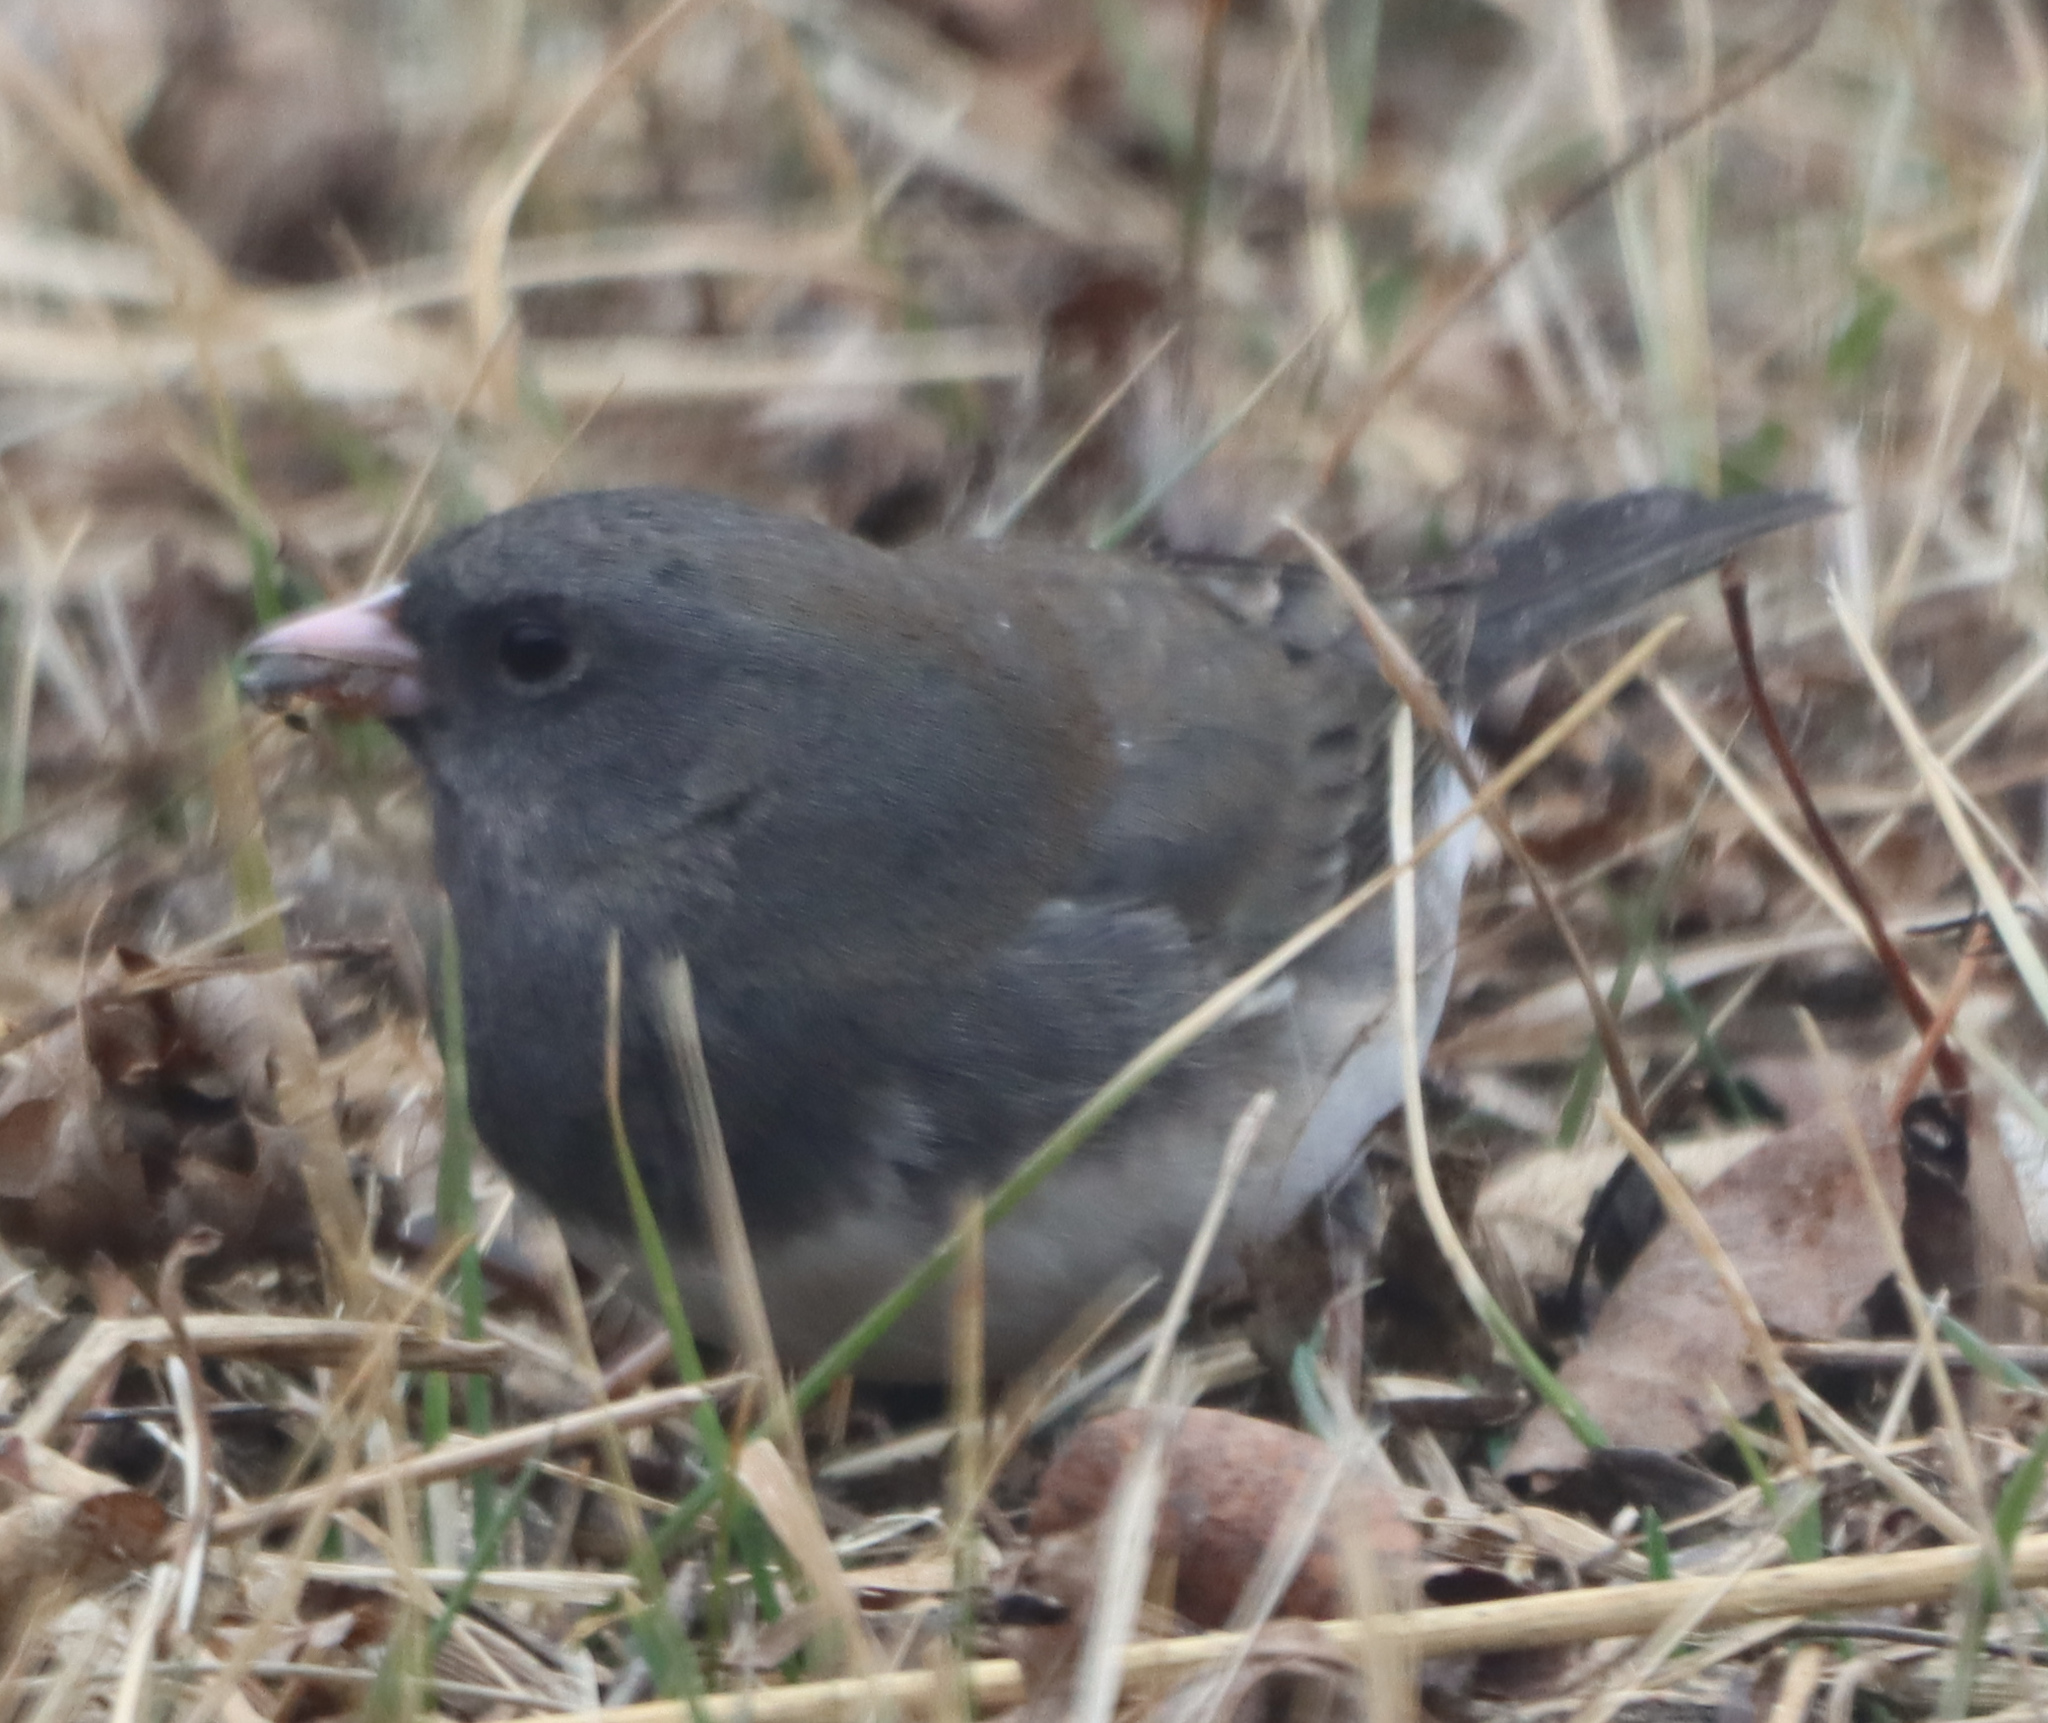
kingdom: Animalia
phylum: Chordata
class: Aves
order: Passeriformes
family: Passerellidae
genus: Junco
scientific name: Junco hyemalis
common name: Dark-eyed junco
